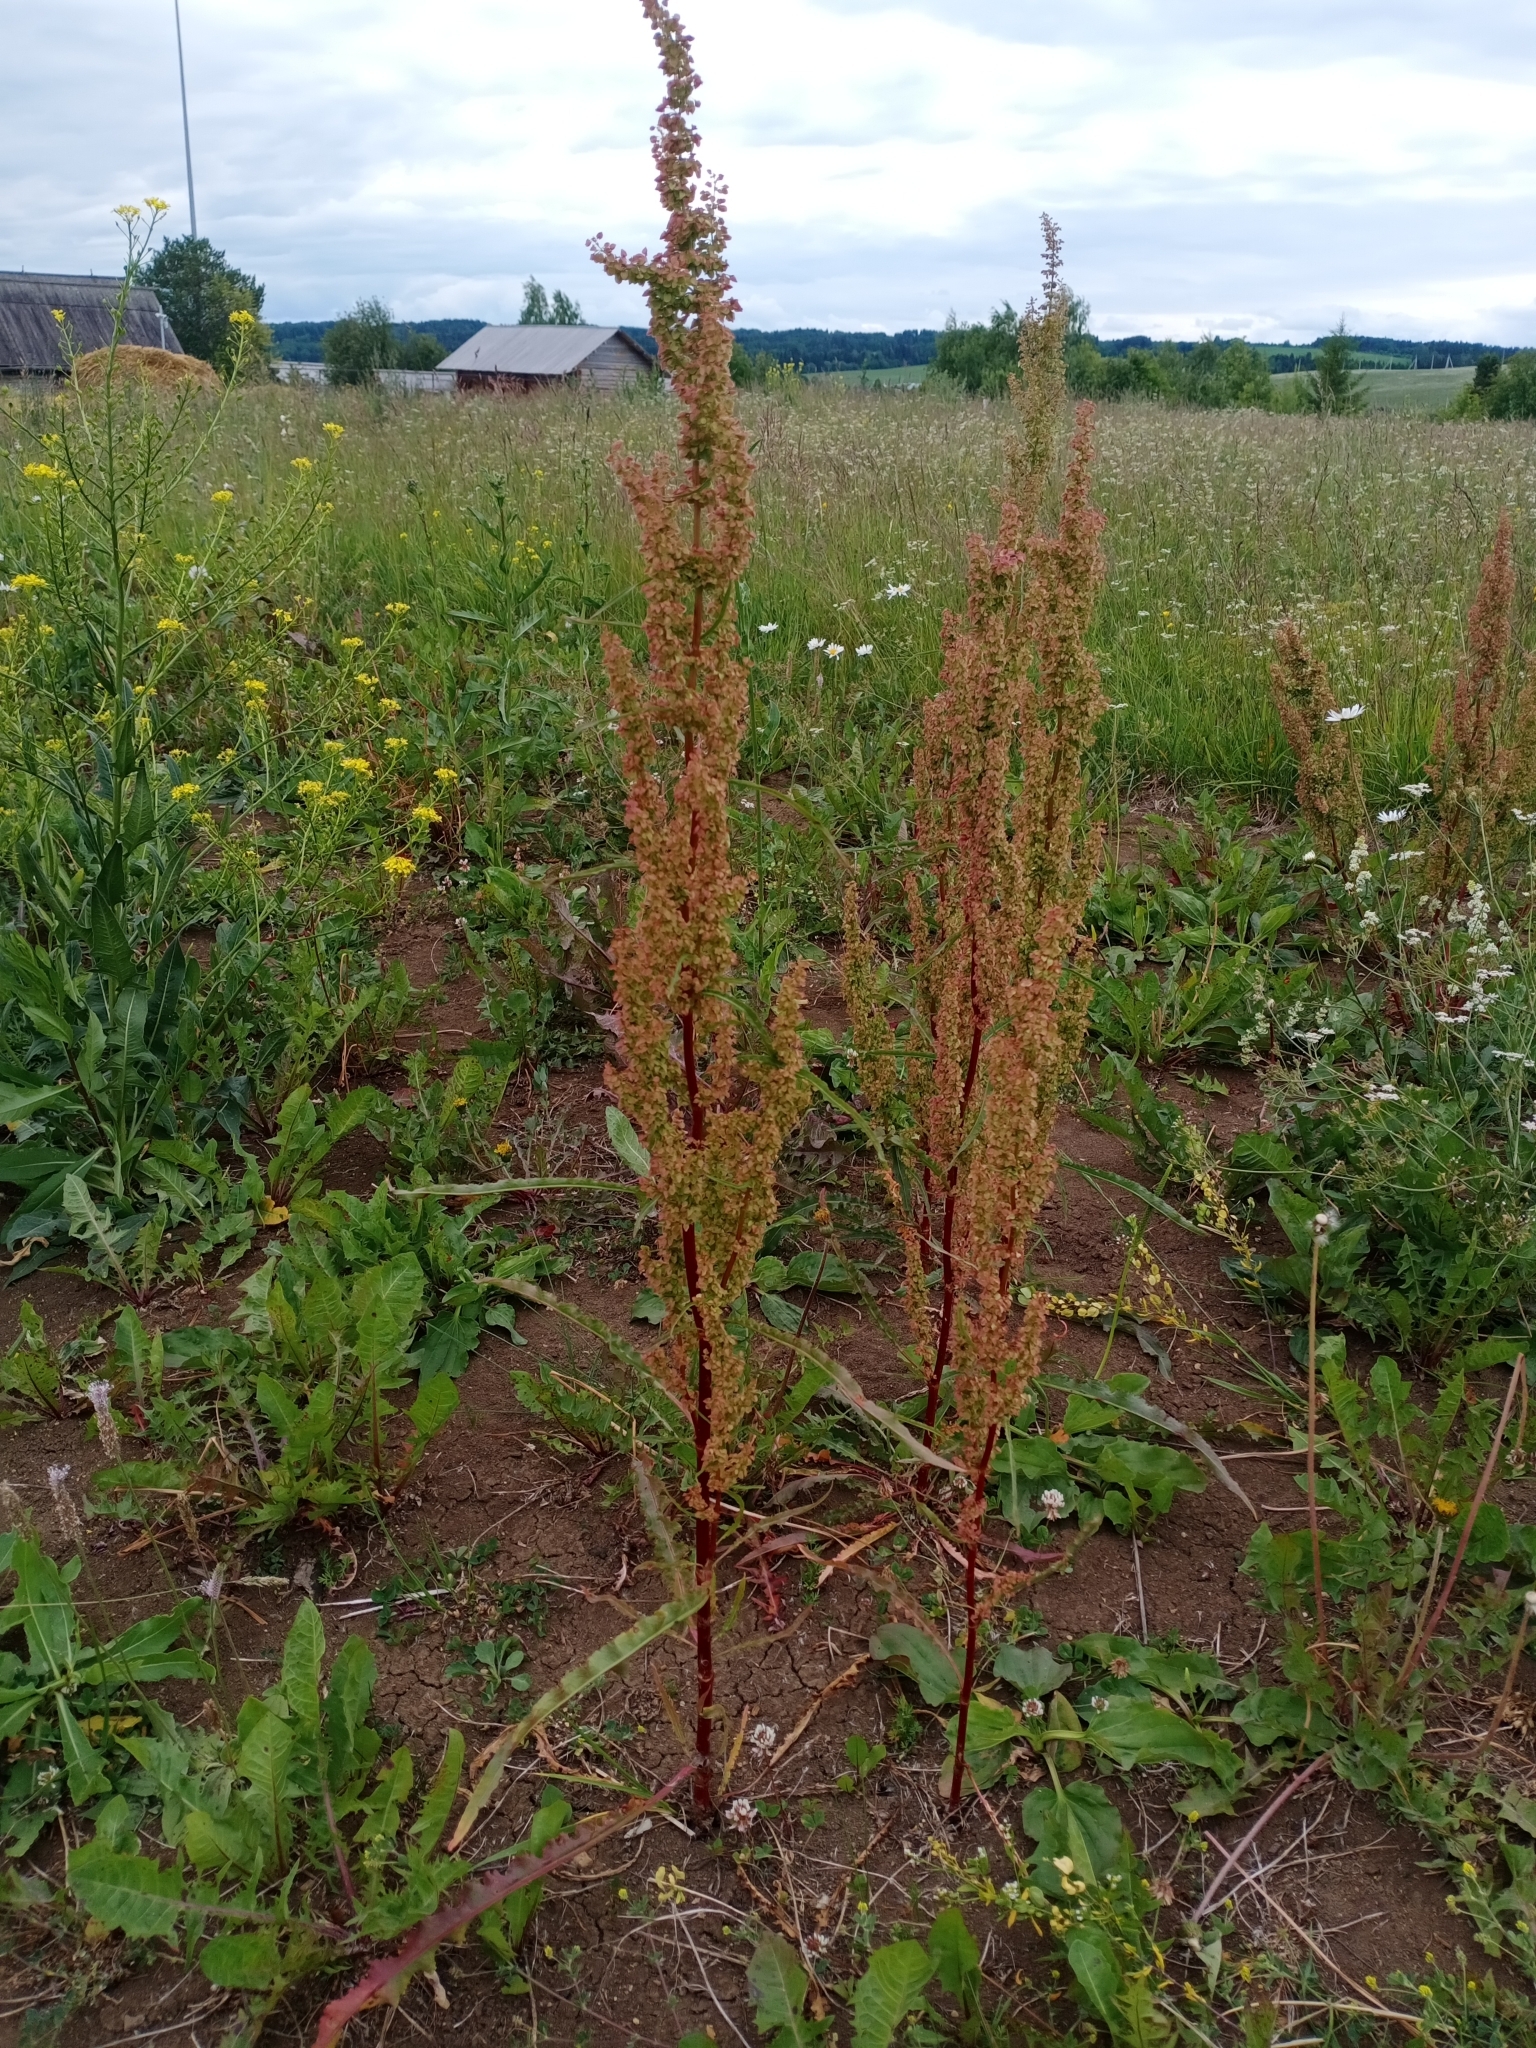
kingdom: Plantae
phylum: Tracheophyta
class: Magnoliopsida
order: Caryophyllales
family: Polygonaceae
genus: Rumex
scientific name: Rumex pseudonatronatus
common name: Field dock
